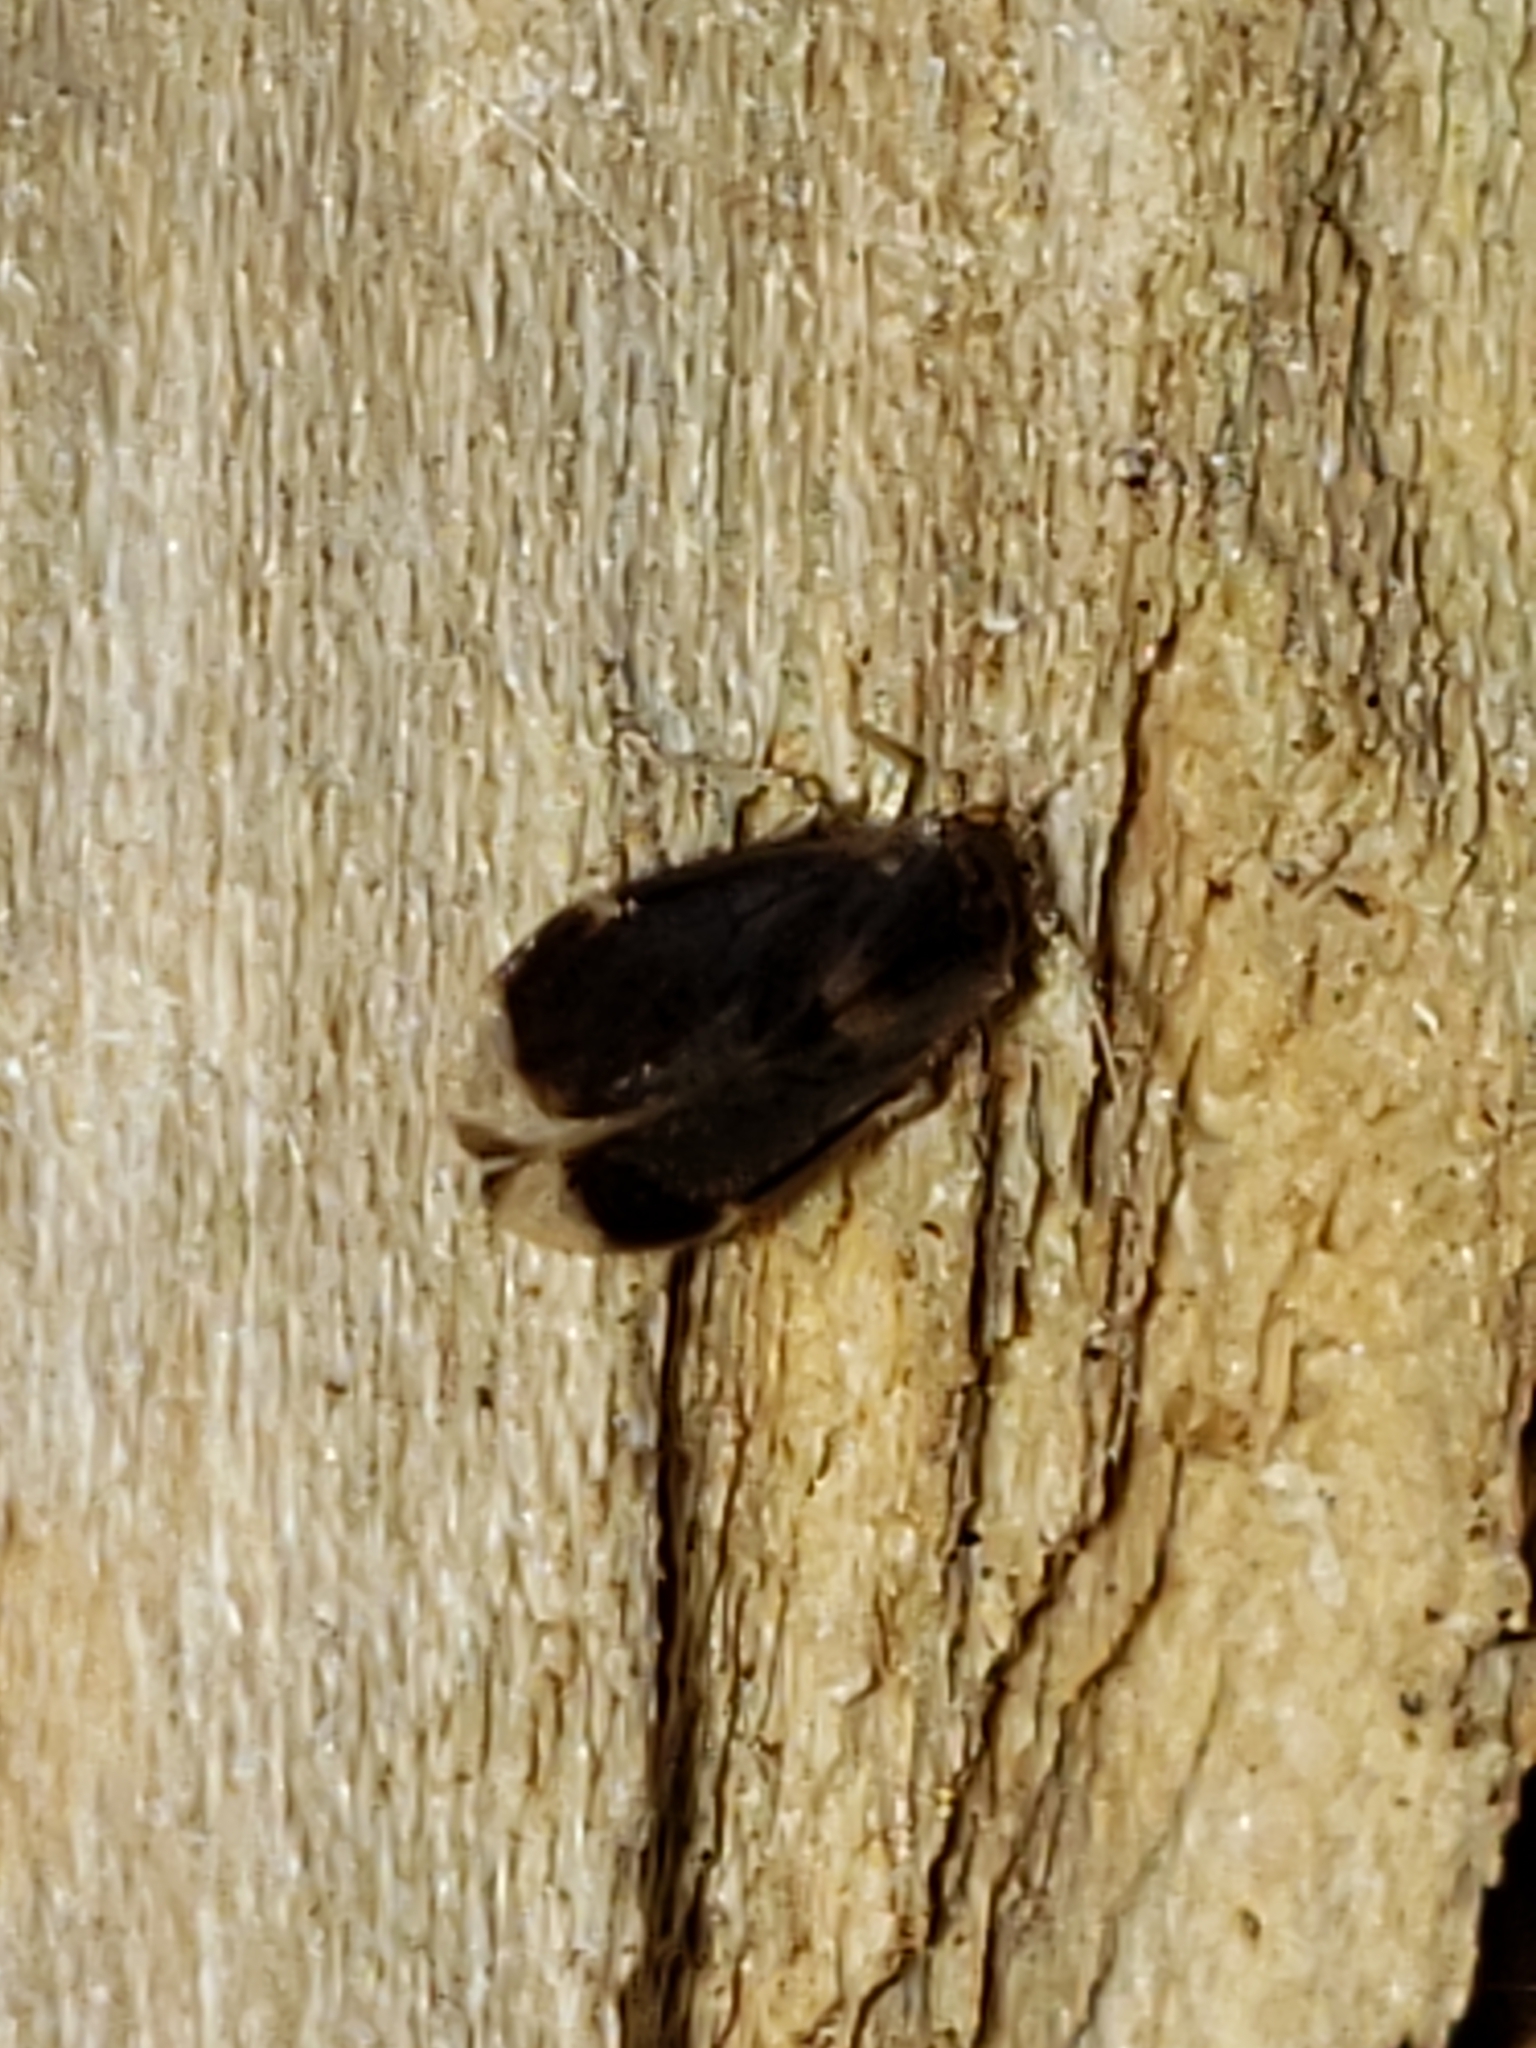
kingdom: Animalia
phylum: Arthropoda
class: Insecta
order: Psocodea
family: Amphipsocidae
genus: Polypsocus
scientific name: Polypsocus corruptus
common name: Corrupt barklouse
